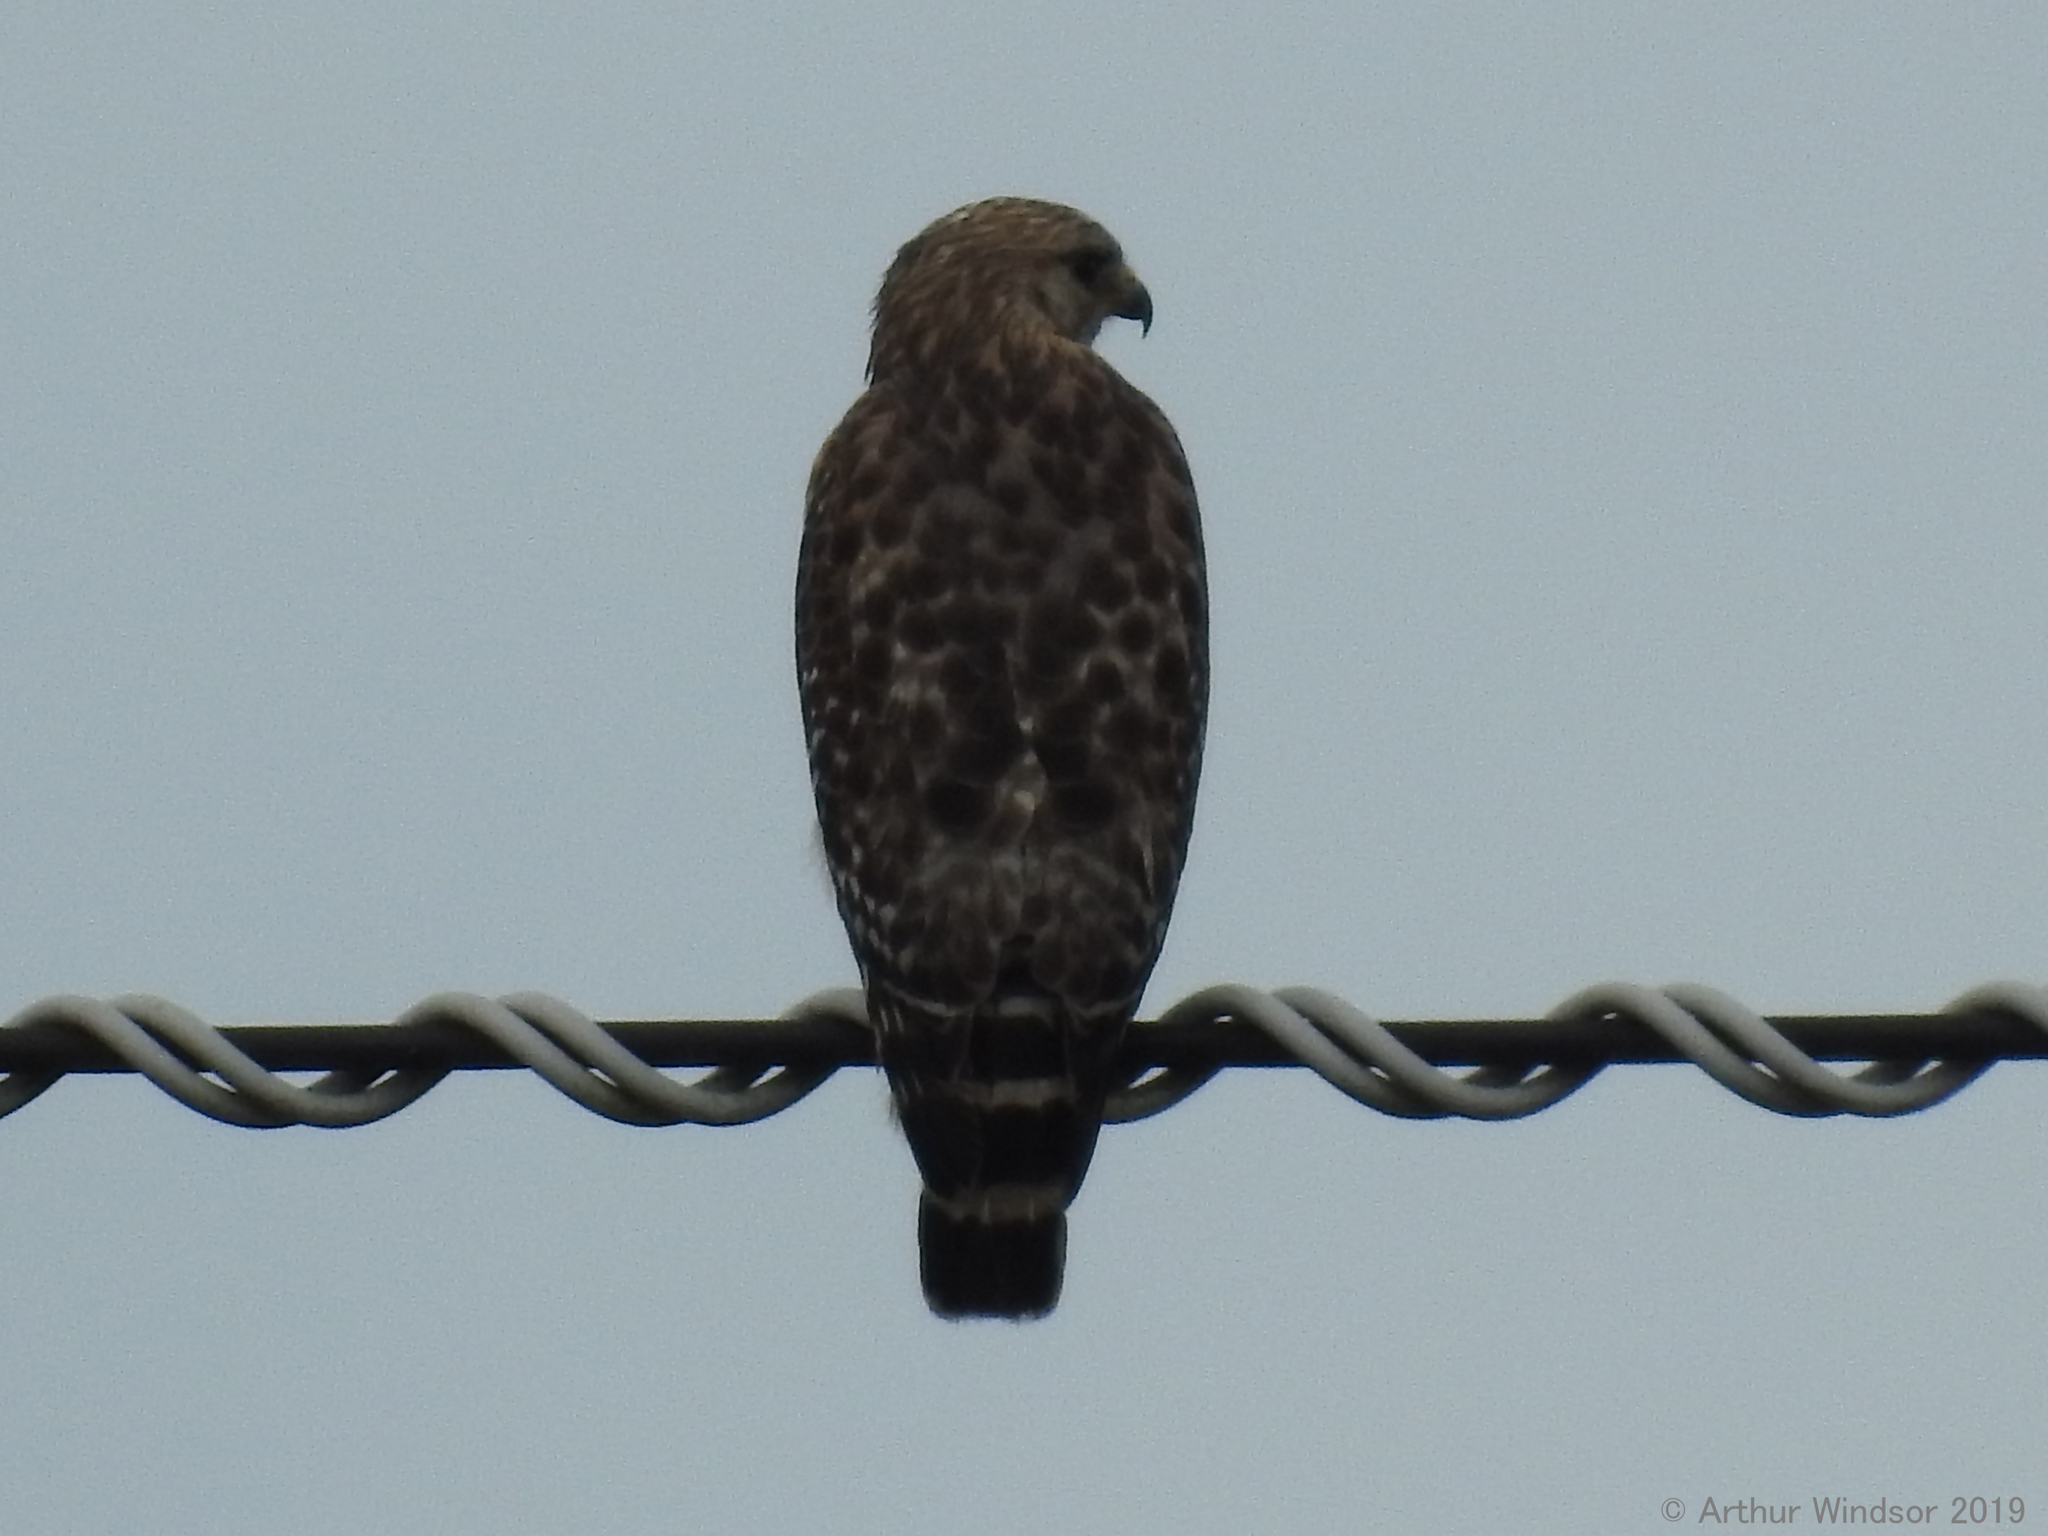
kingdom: Animalia
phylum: Chordata
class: Aves
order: Accipitriformes
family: Accipitridae
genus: Buteo
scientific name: Buteo lineatus
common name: Red-shouldered hawk
